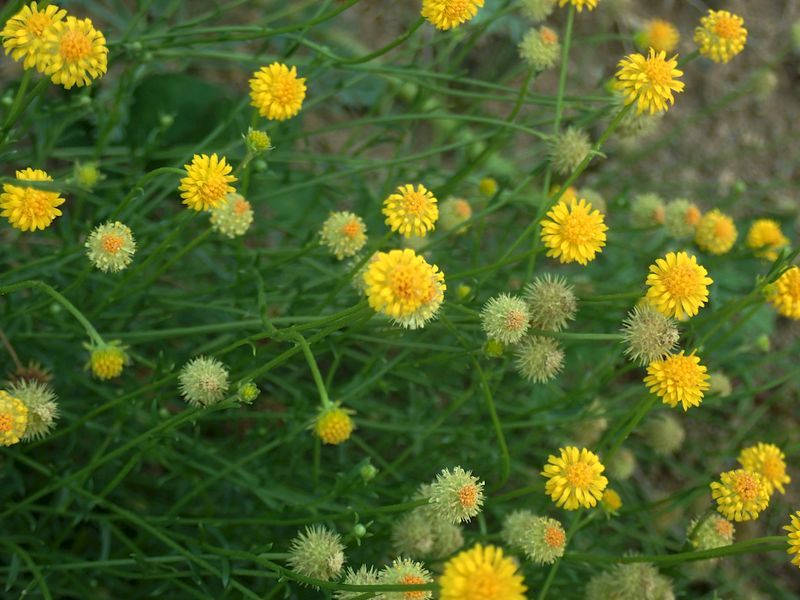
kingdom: Plantae
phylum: Tracheophyta
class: Magnoliopsida
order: Asterales
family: Asteraceae
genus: Calotis
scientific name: Calotis lappulacea
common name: Bur daisy
